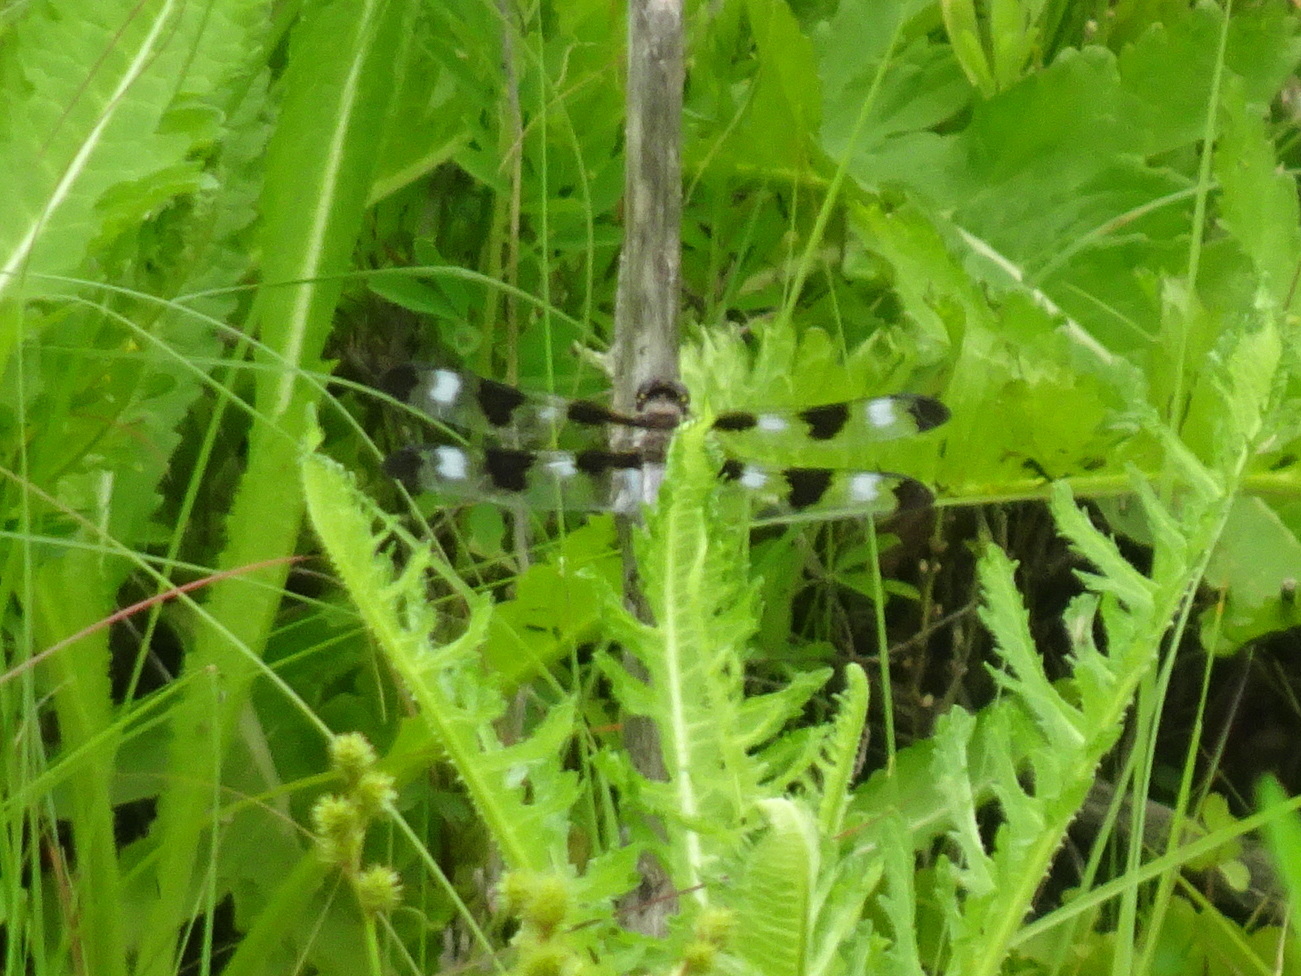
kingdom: Animalia
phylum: Arthropoda
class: Insecta
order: Odonata
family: Libellulidae
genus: Libellula
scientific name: Libellula pulchella
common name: Twelve-spotted skimmer
